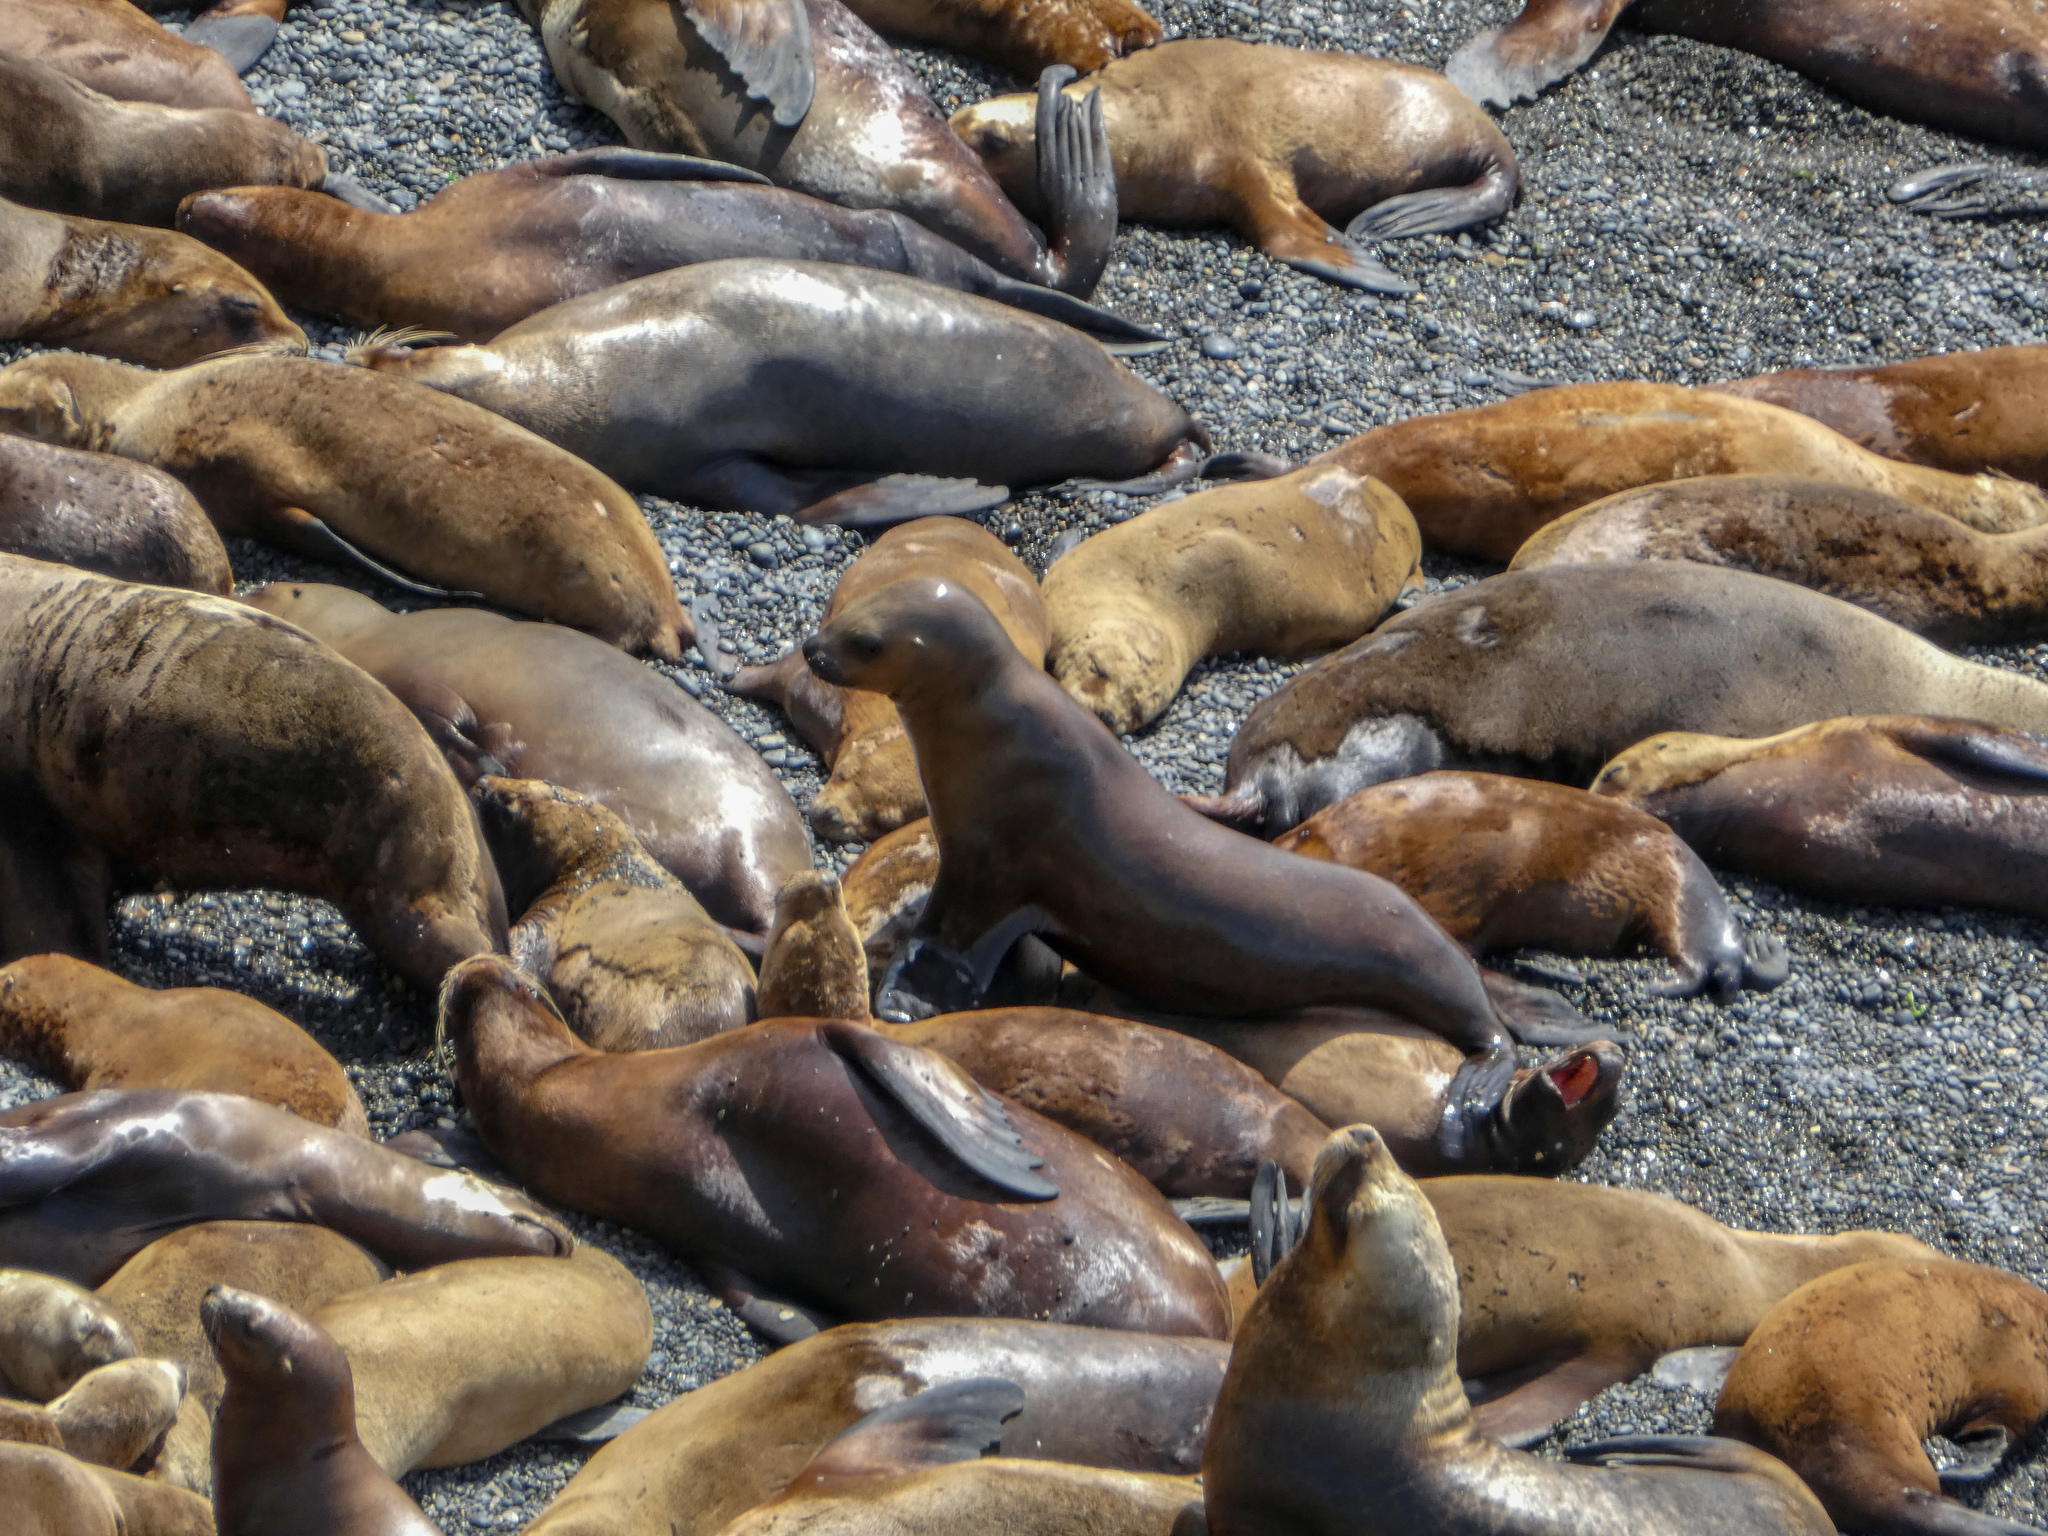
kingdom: Animalia
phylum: Chordata
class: Mammalia
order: Carnivora
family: Otariidae
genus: Otaria
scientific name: Otaria byronia
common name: South american sea lion
